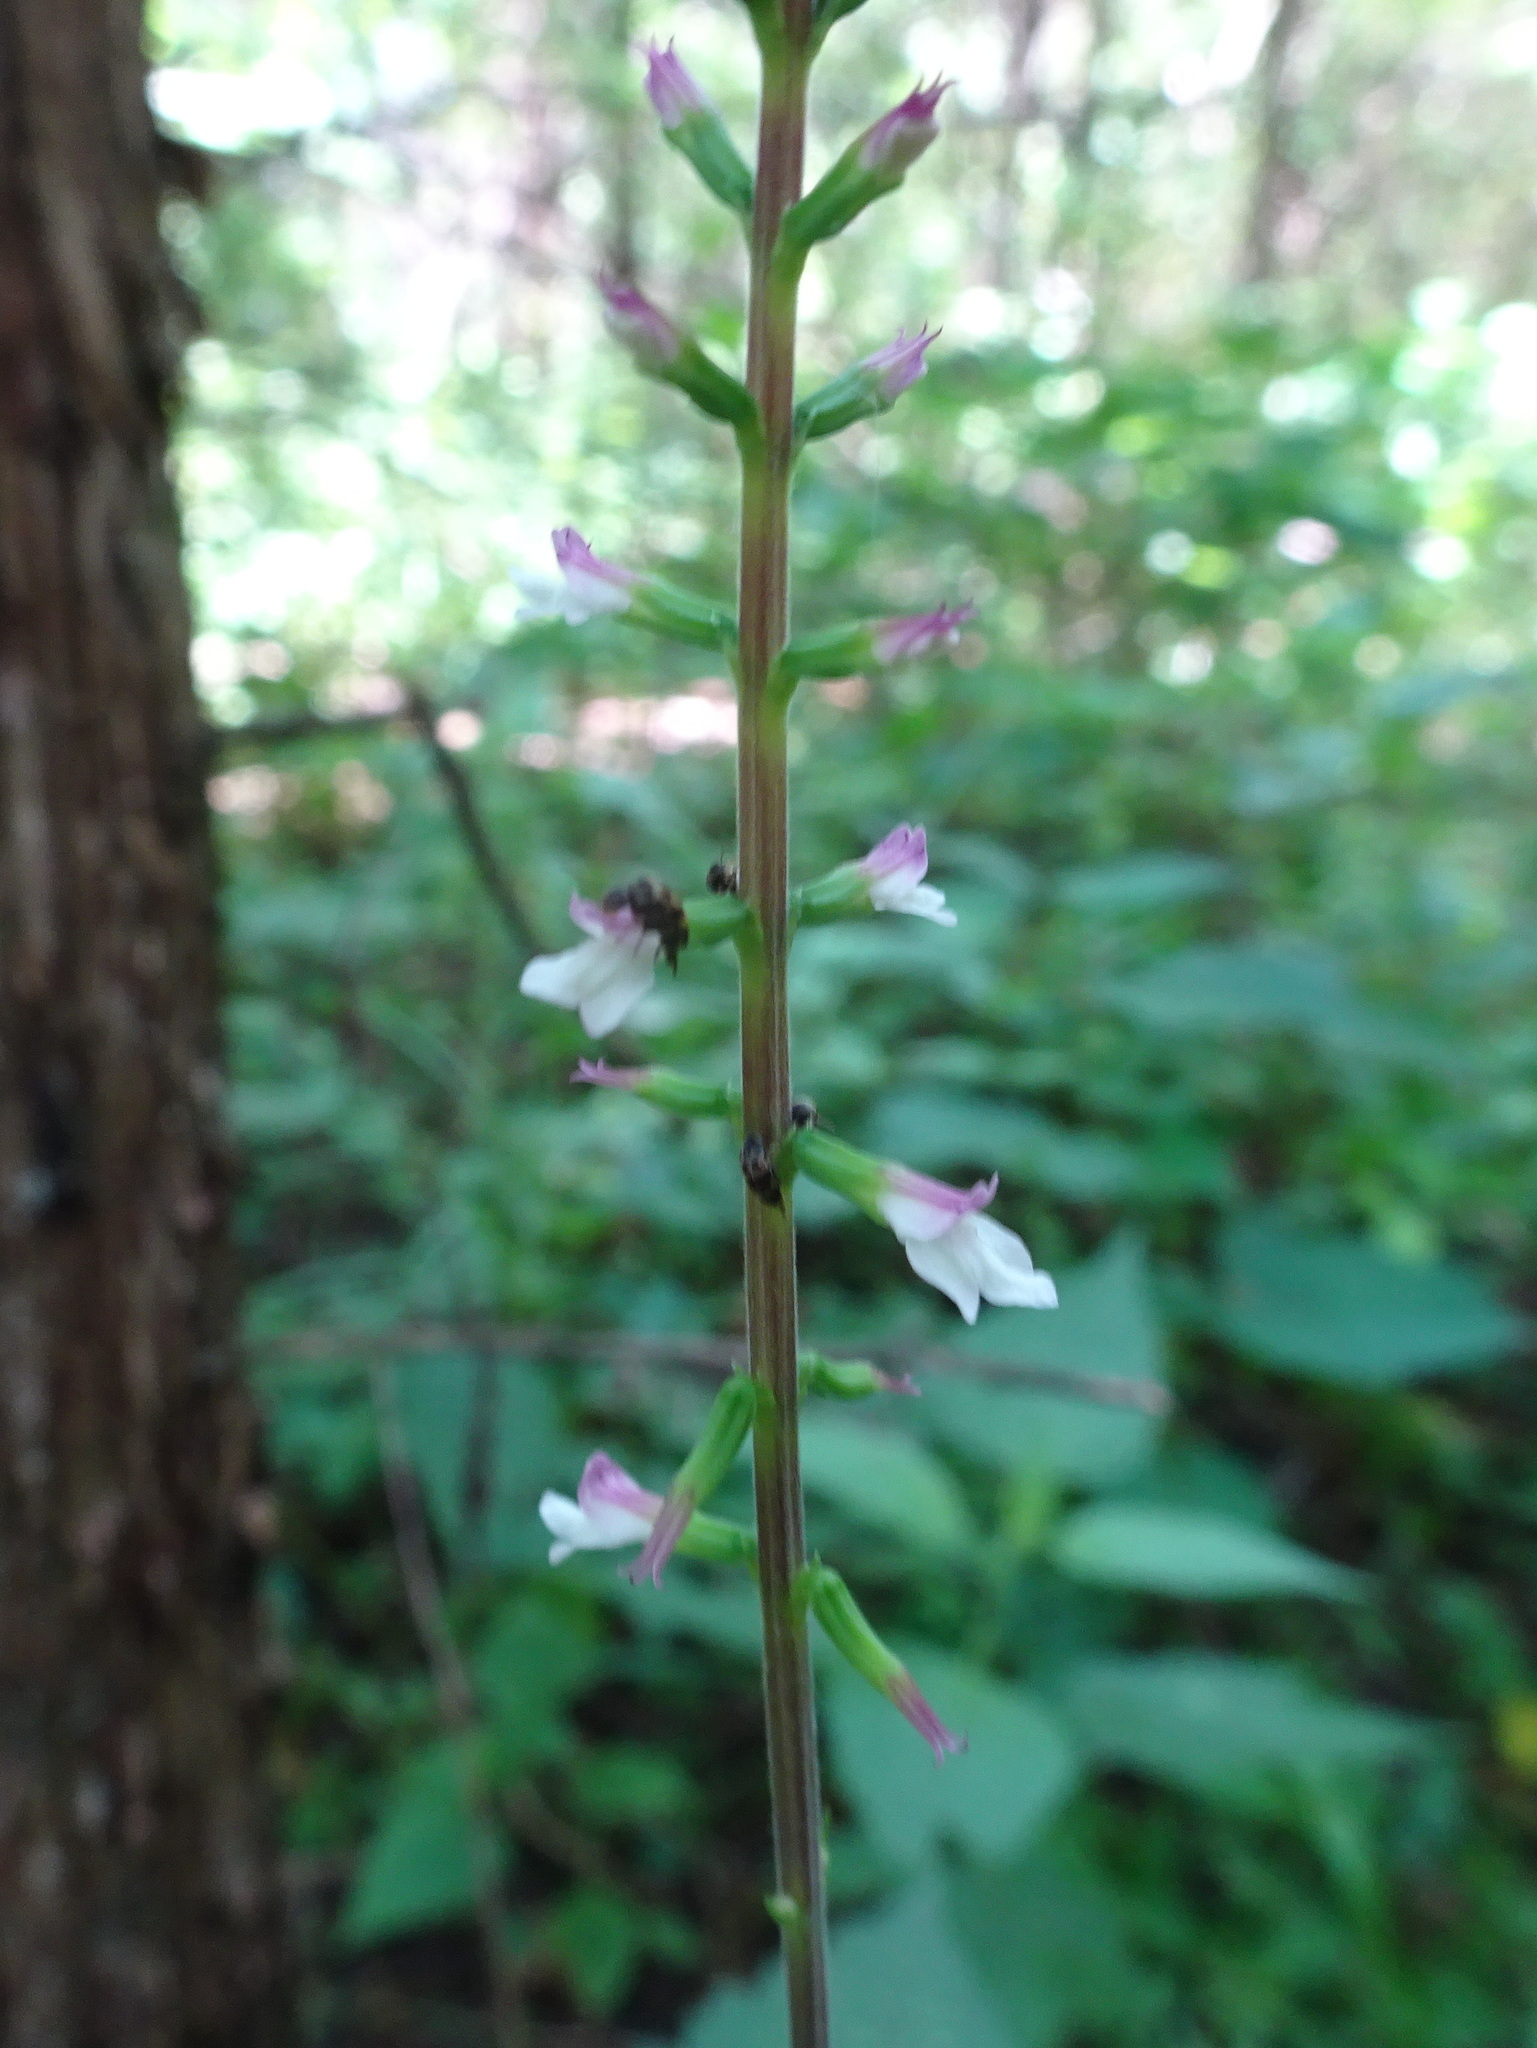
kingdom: Plantae
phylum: Tracheophyta
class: Magnoliopsida
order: Lamiales
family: Phrymaceae
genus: Phryma
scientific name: Phryma leptostachya
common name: American lopseed
